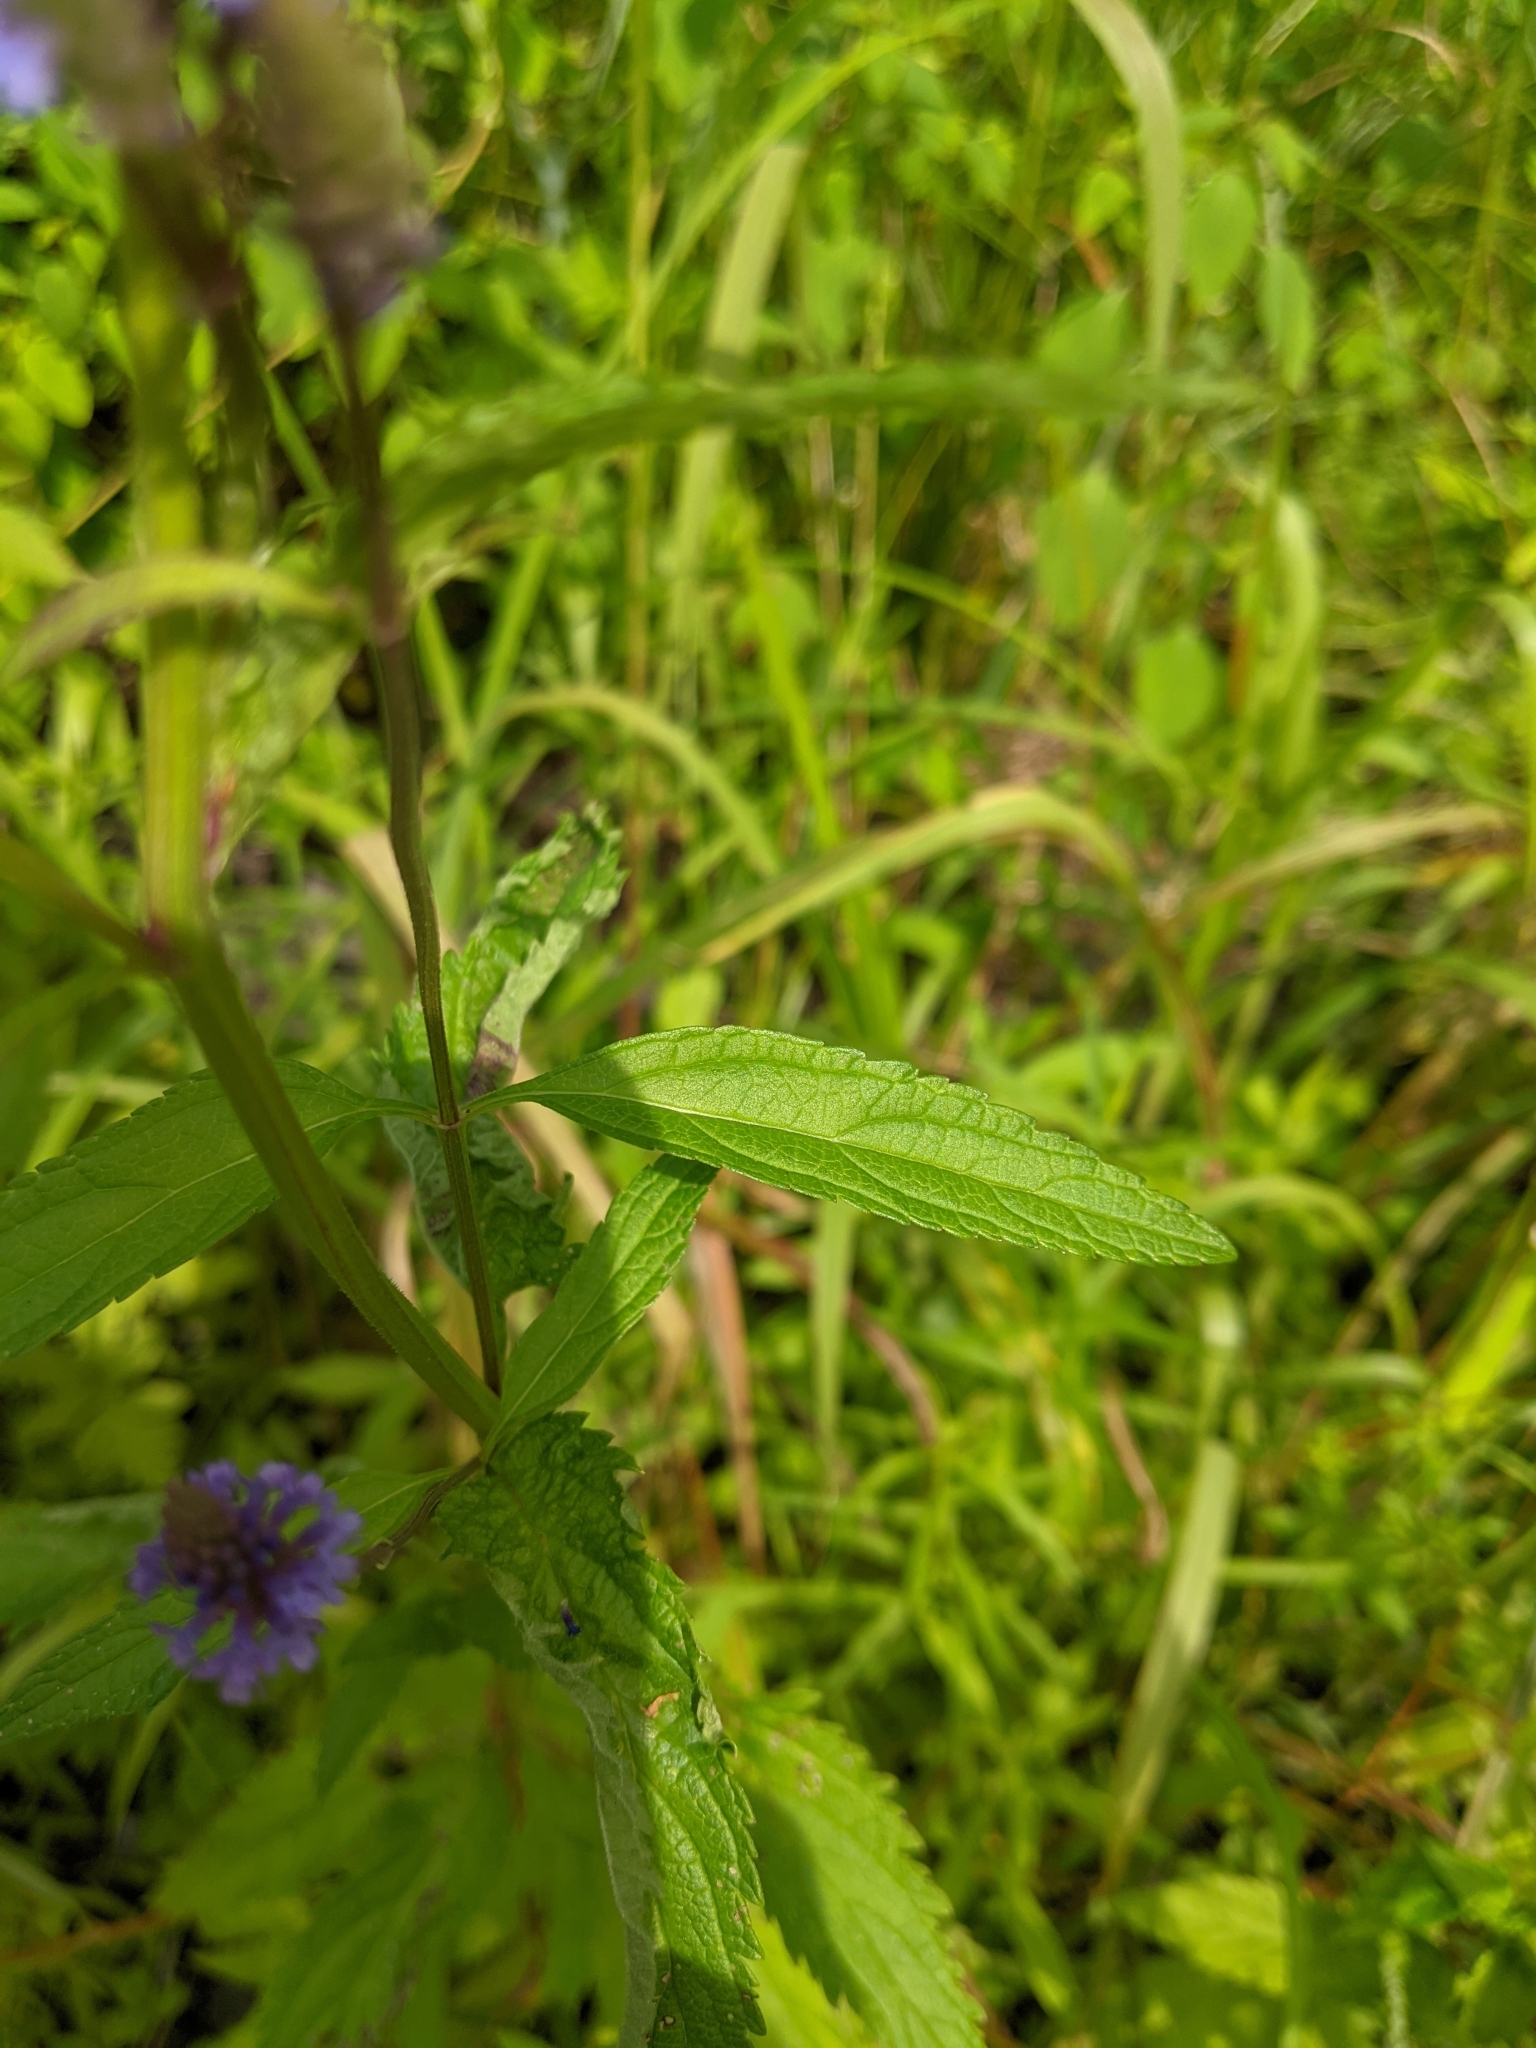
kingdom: Plantae
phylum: Tracheophyta
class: Magnoliopsida
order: Lamiales
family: Verbenaceae
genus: Verbena
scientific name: Verbena hastata
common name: American blue vervain
